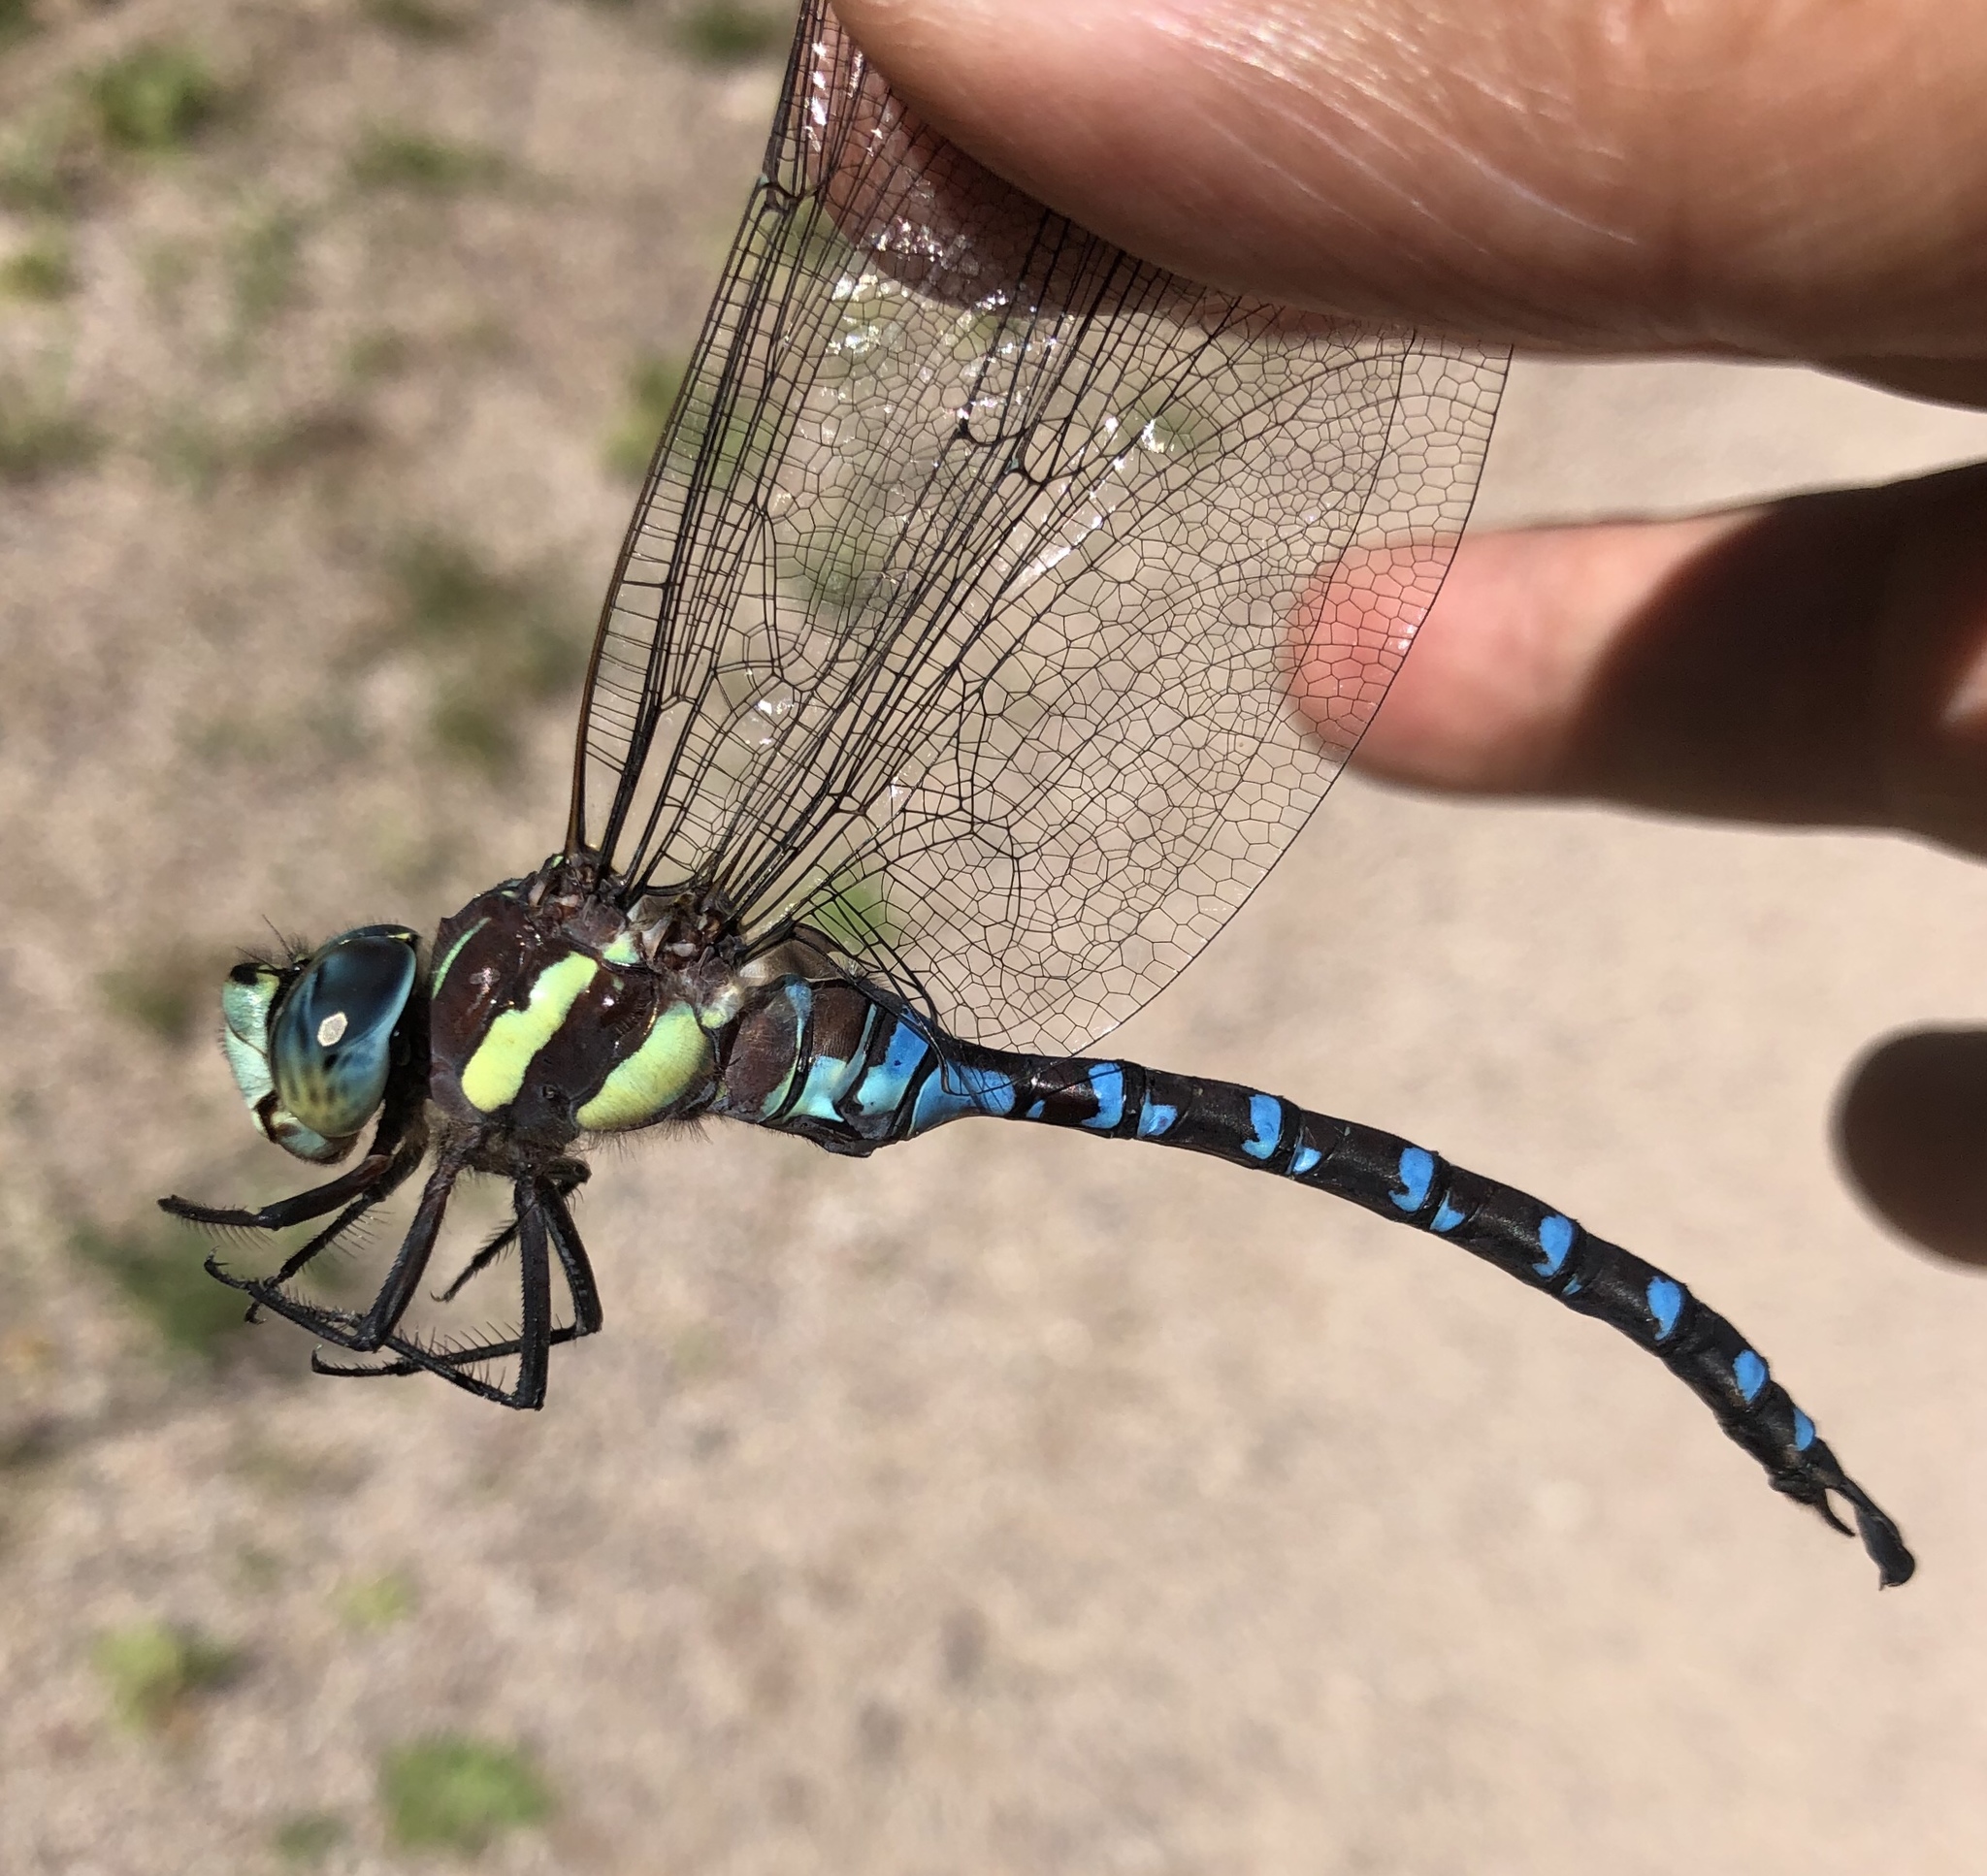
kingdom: Animalia
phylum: Arthropoda
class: Insecta
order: Odonata
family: Aeshnidae
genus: Aeshna
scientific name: Aeshna persephone
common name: Persephone's darner
